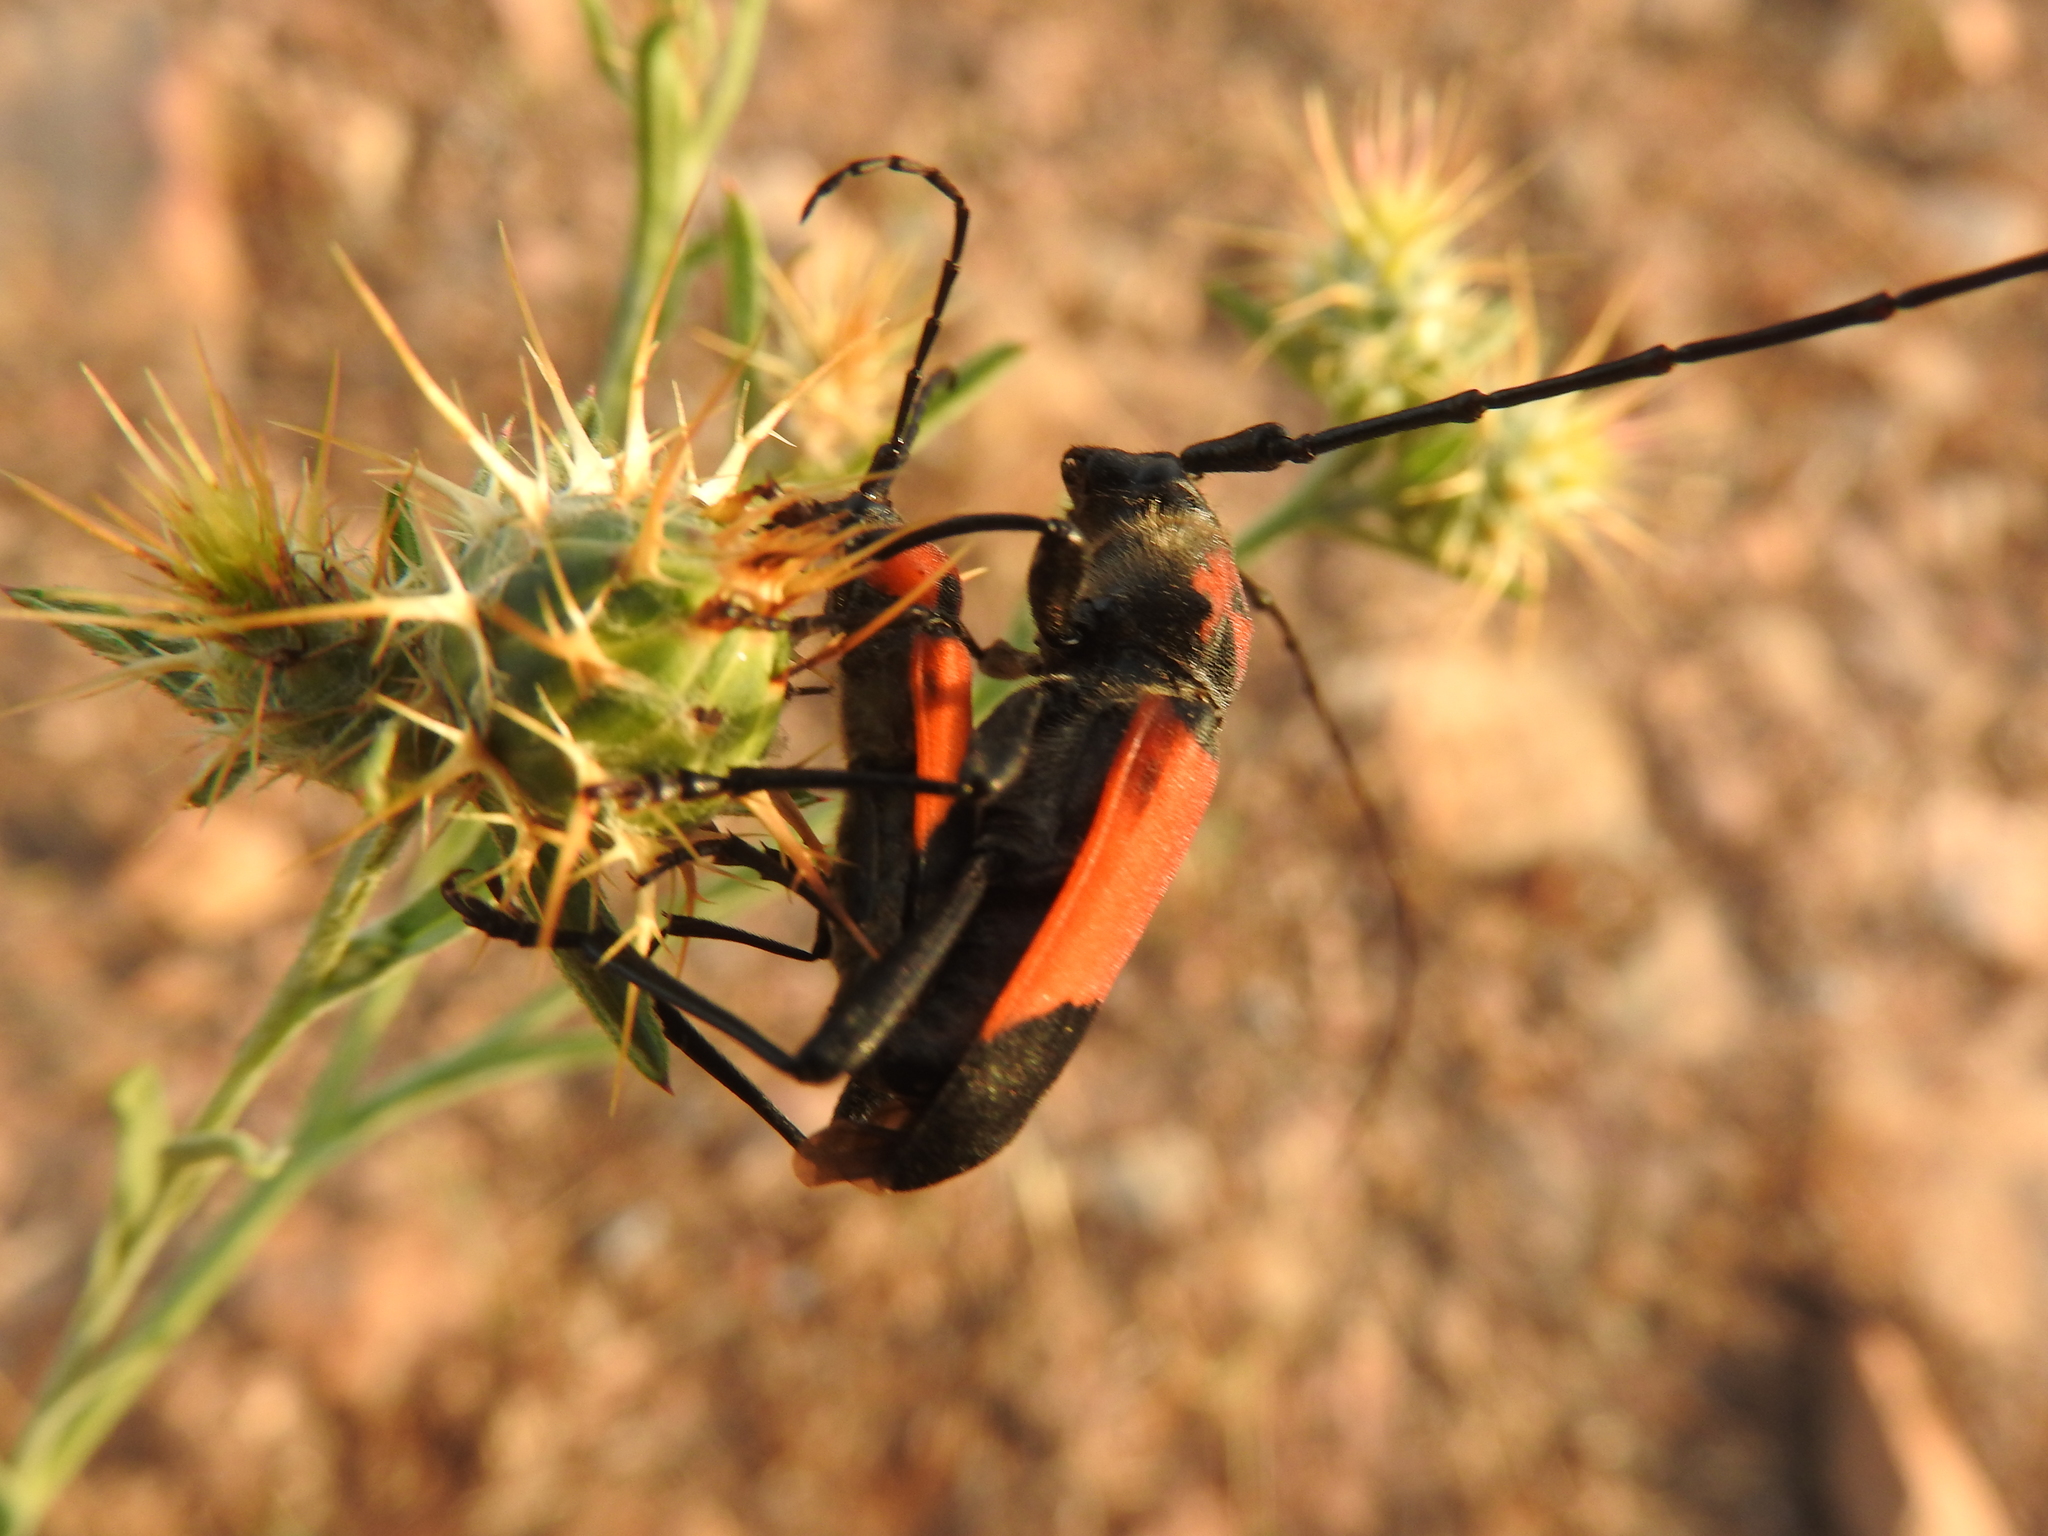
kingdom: Animalia
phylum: Arthropoda
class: Insecta
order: Coleoptera
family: Cerambycidae
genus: Purpuricenus
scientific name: Purpuricenus desfontainii
